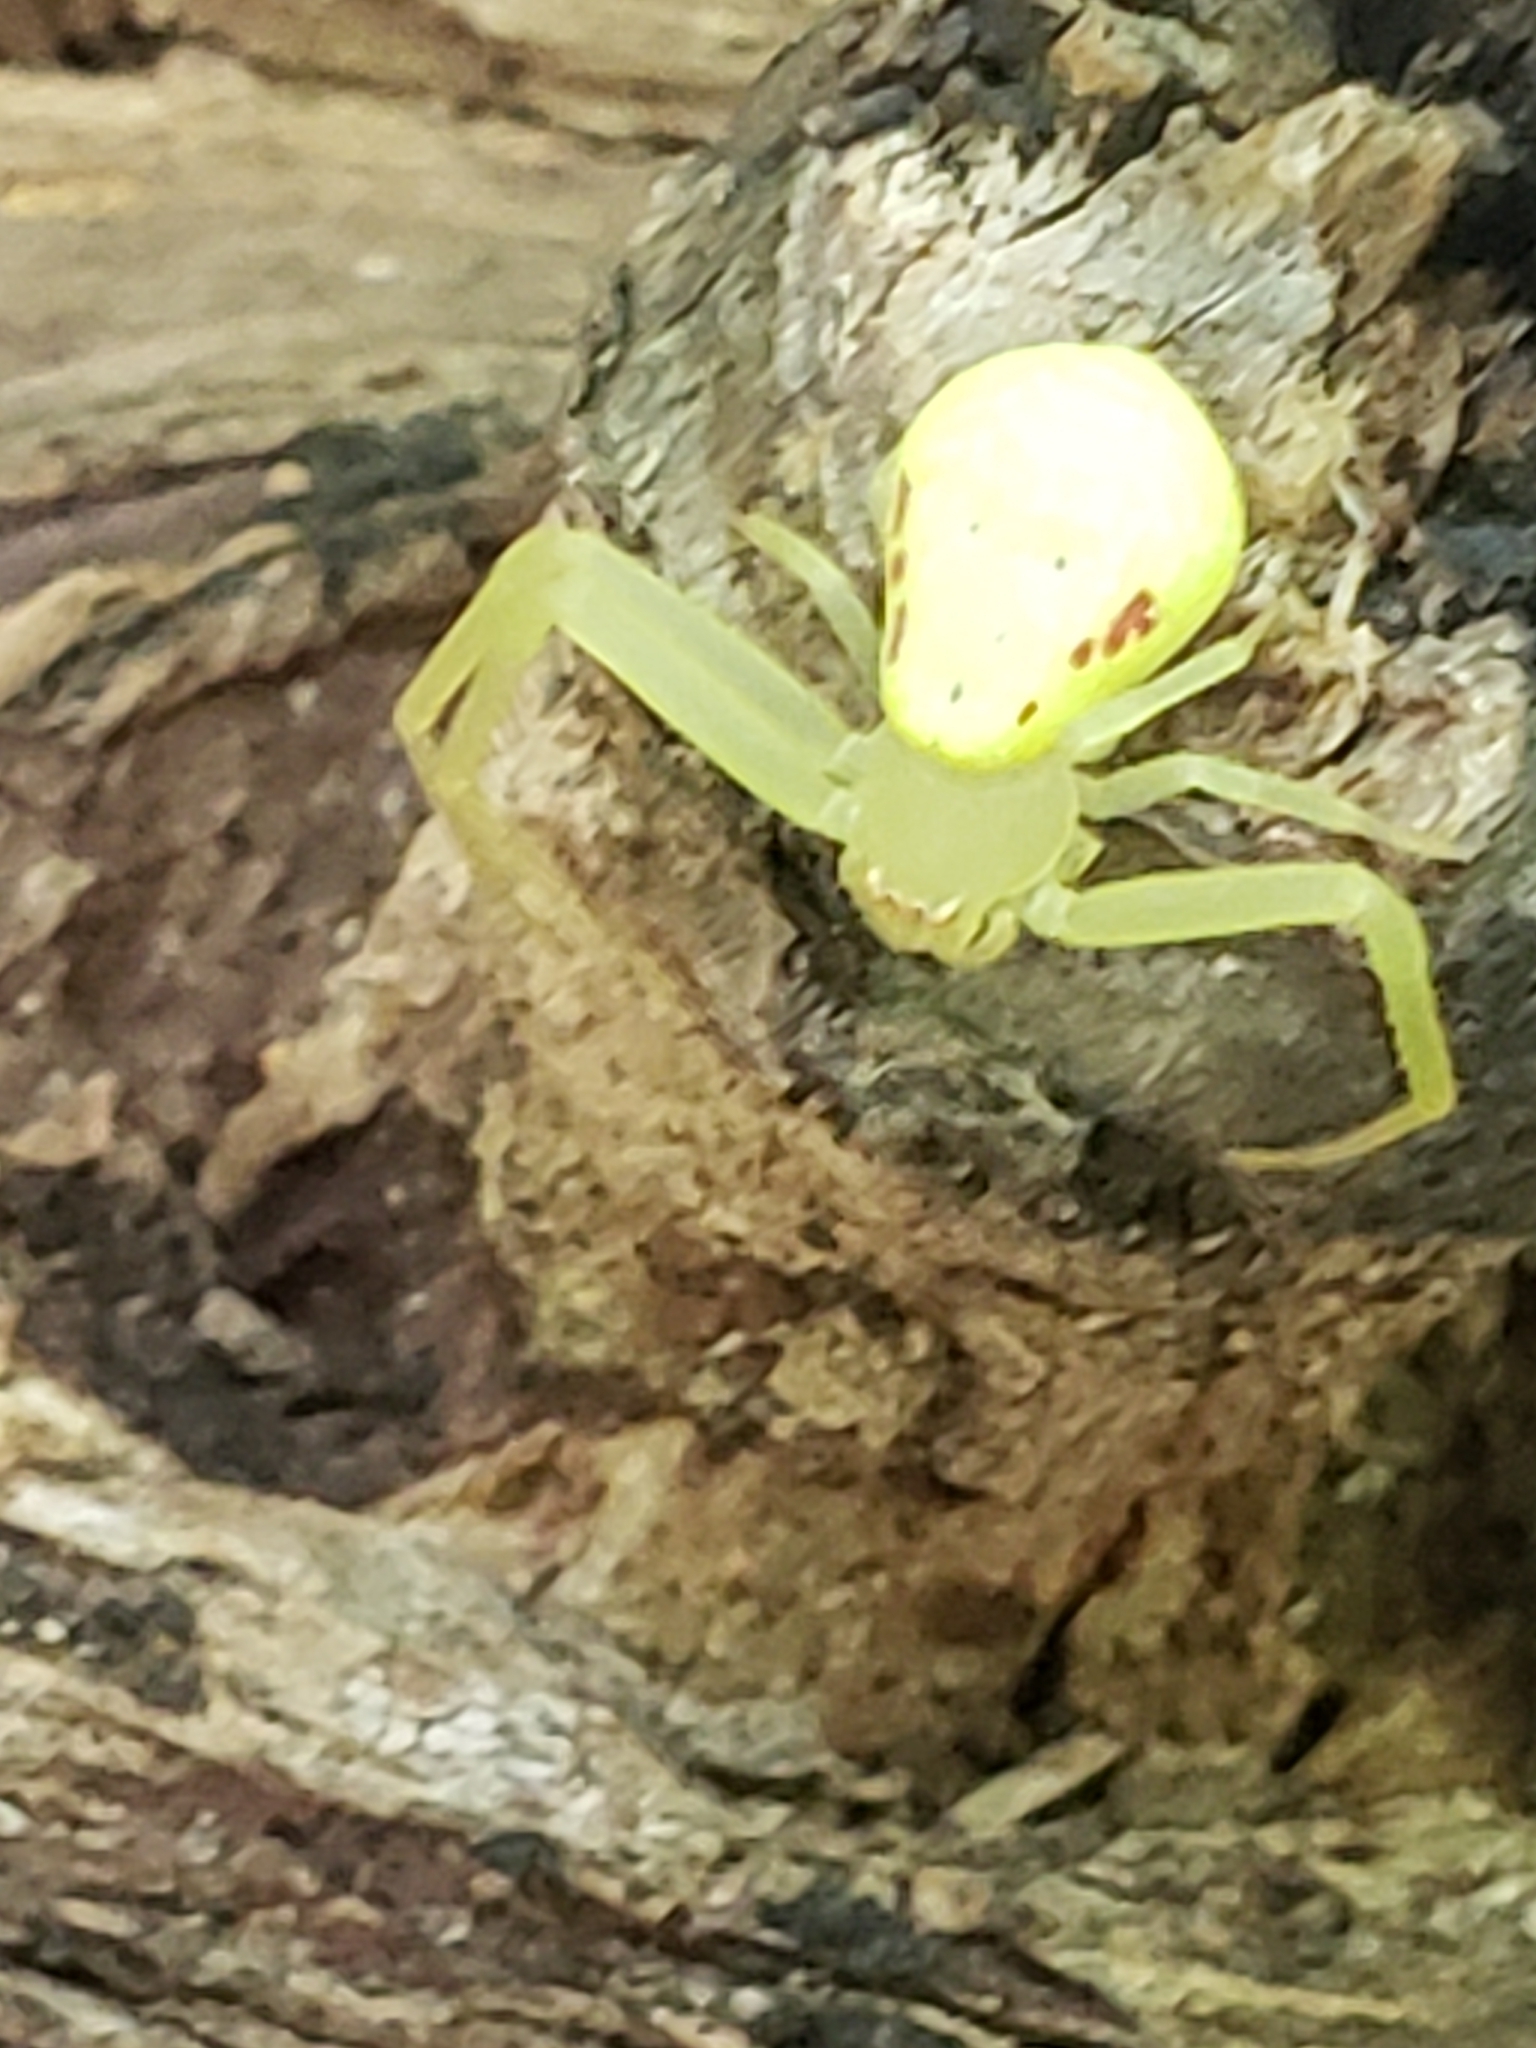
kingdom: Animalia
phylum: Arthropoda
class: Arachnida
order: Araneae
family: Thomisidae
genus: Misumessus
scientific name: Misumessus oblongus
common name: American green crab spider
